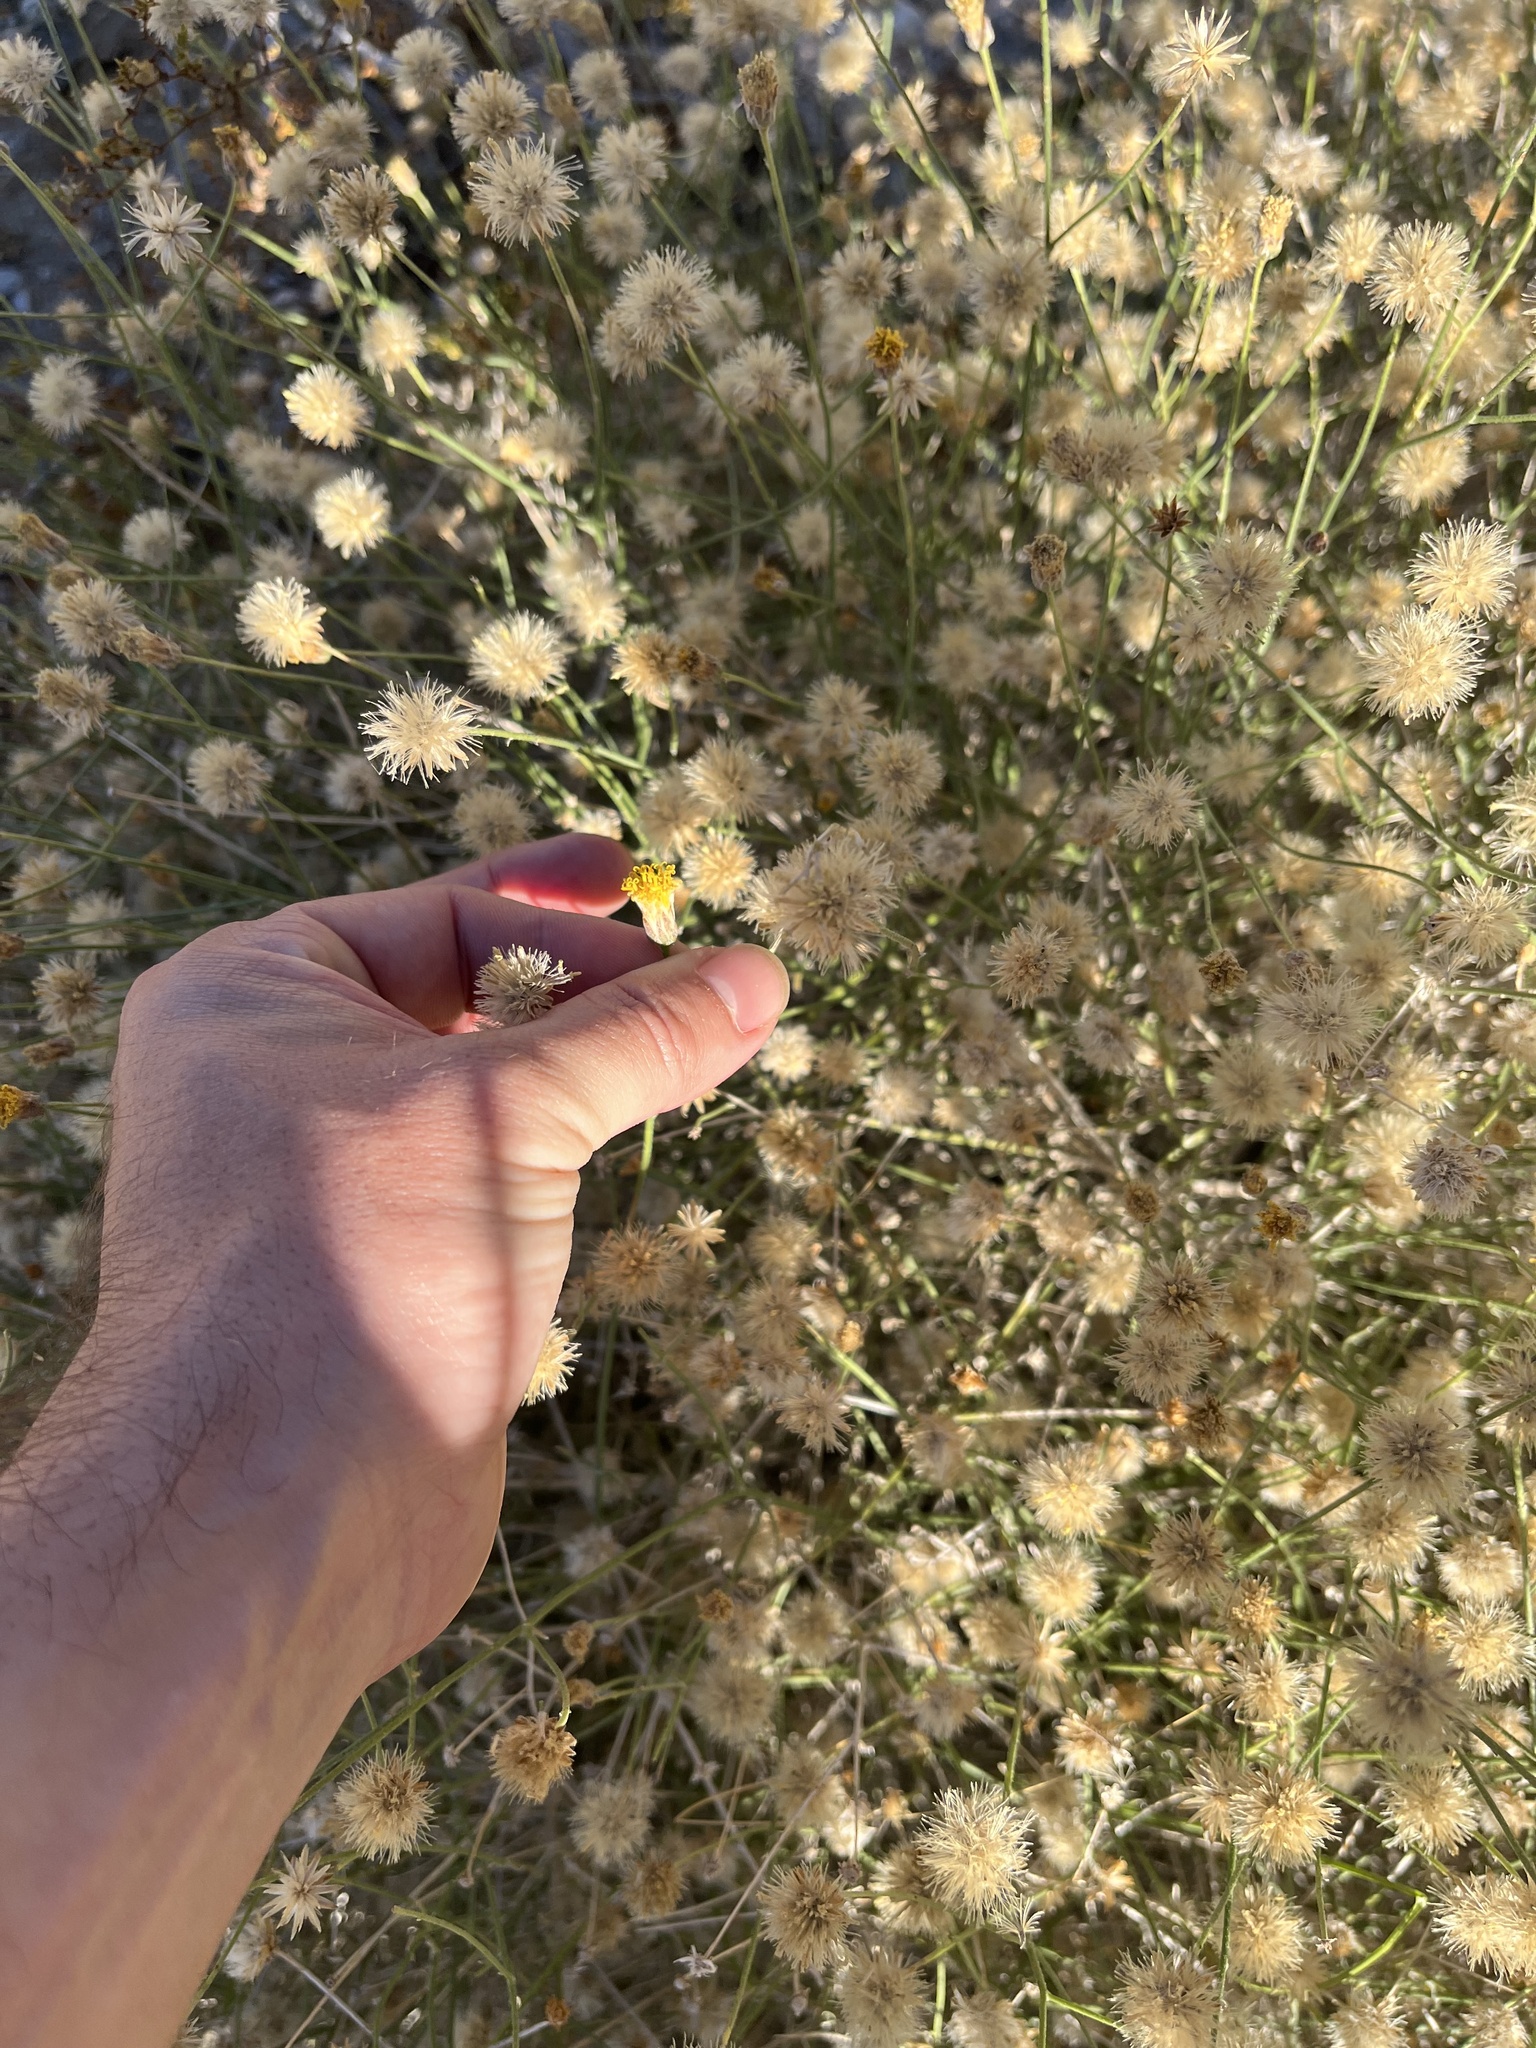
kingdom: Plantae
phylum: Tracheophyta
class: Magnoliopsida
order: Asterales
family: Asteraceae
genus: Bebbia
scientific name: Bebbia juncea
